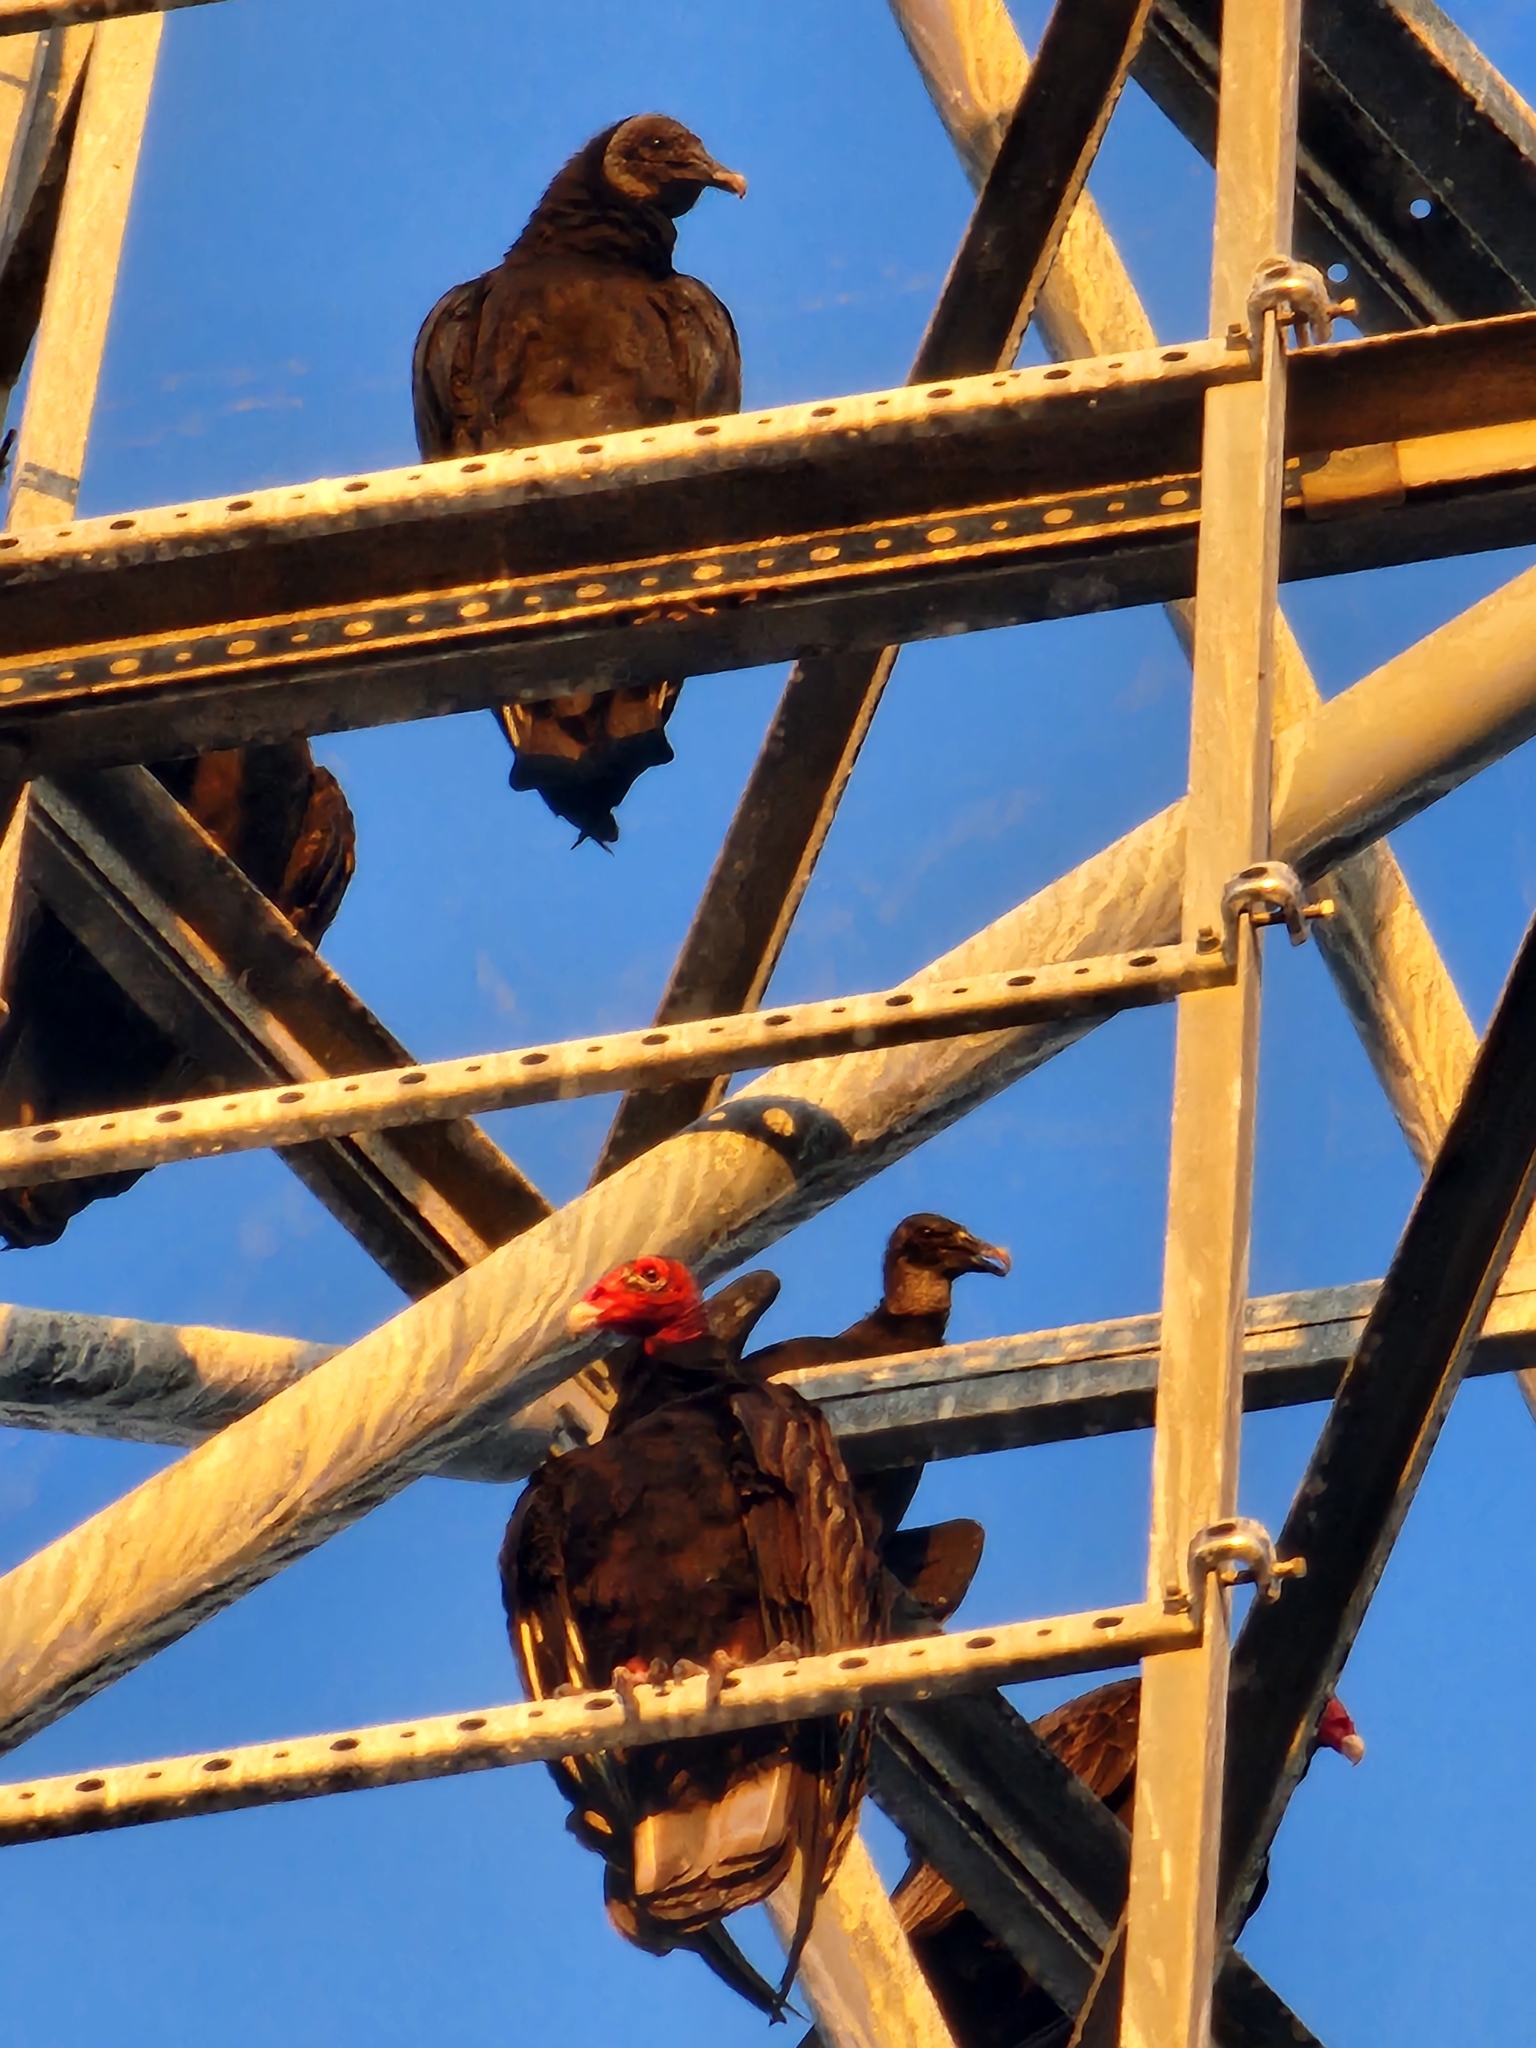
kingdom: Animalia
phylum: Chordata
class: Aves
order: Accipitriformes
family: Cathartidae
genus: Cathartes
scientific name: Cathartes aura
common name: Turkey vulture
